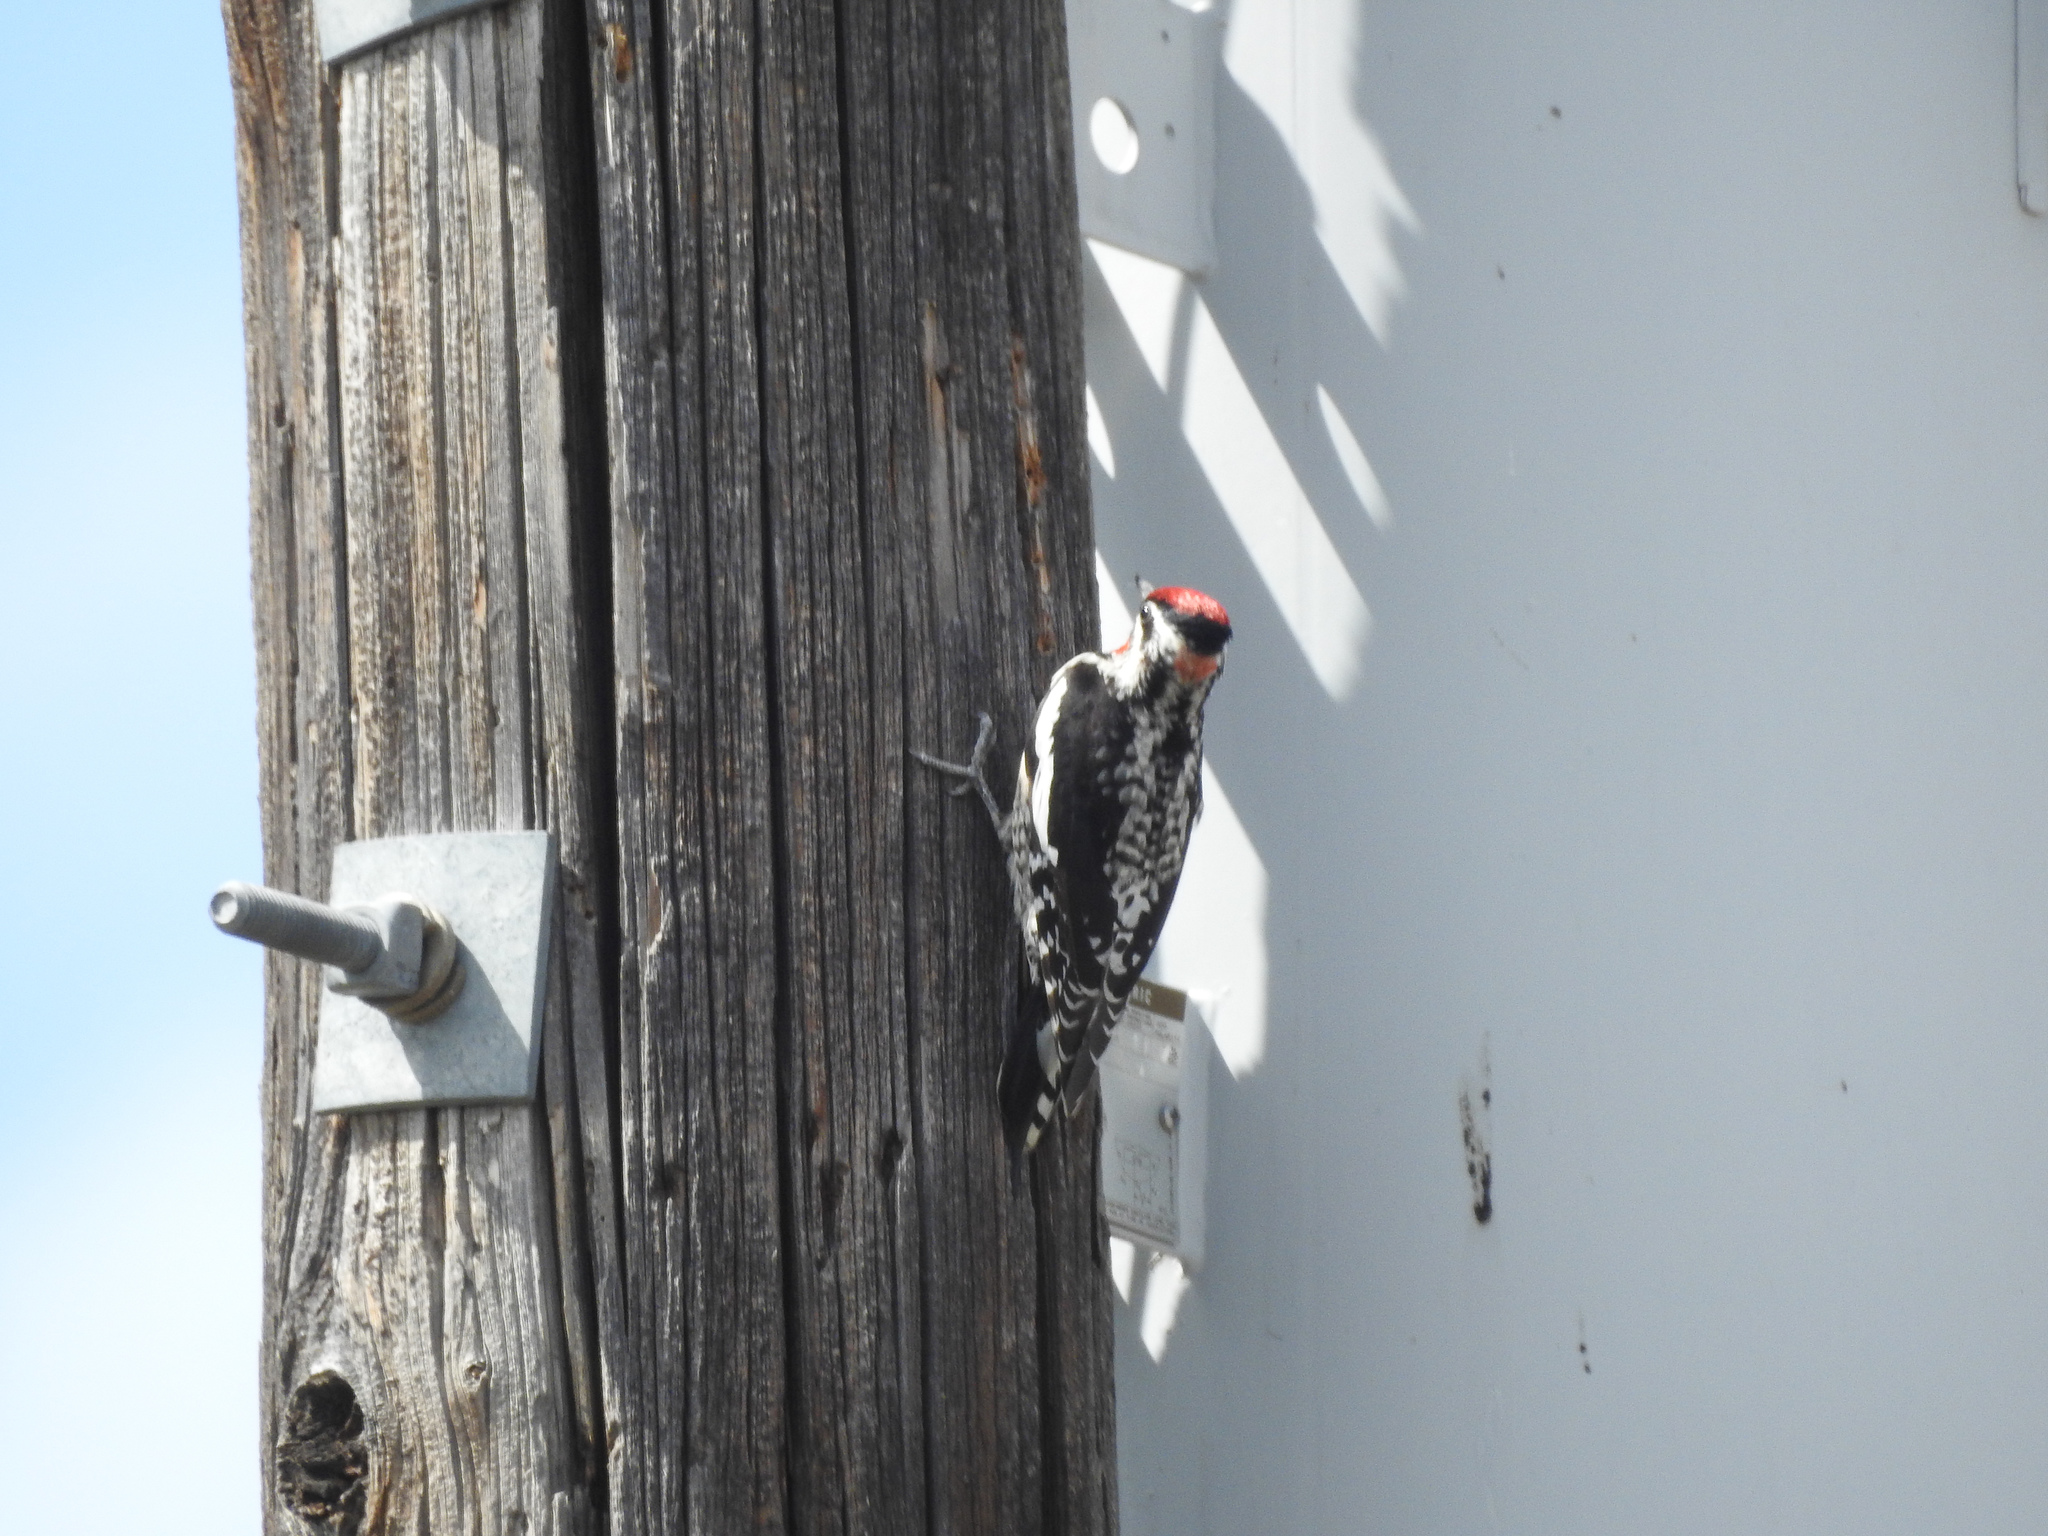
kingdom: Animalia
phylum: Chordata
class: Aves
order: Piciformes
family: Picidae
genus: Sphyrapicus
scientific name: Sphyrapicus nuchalis
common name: Red-naped sapsucker
